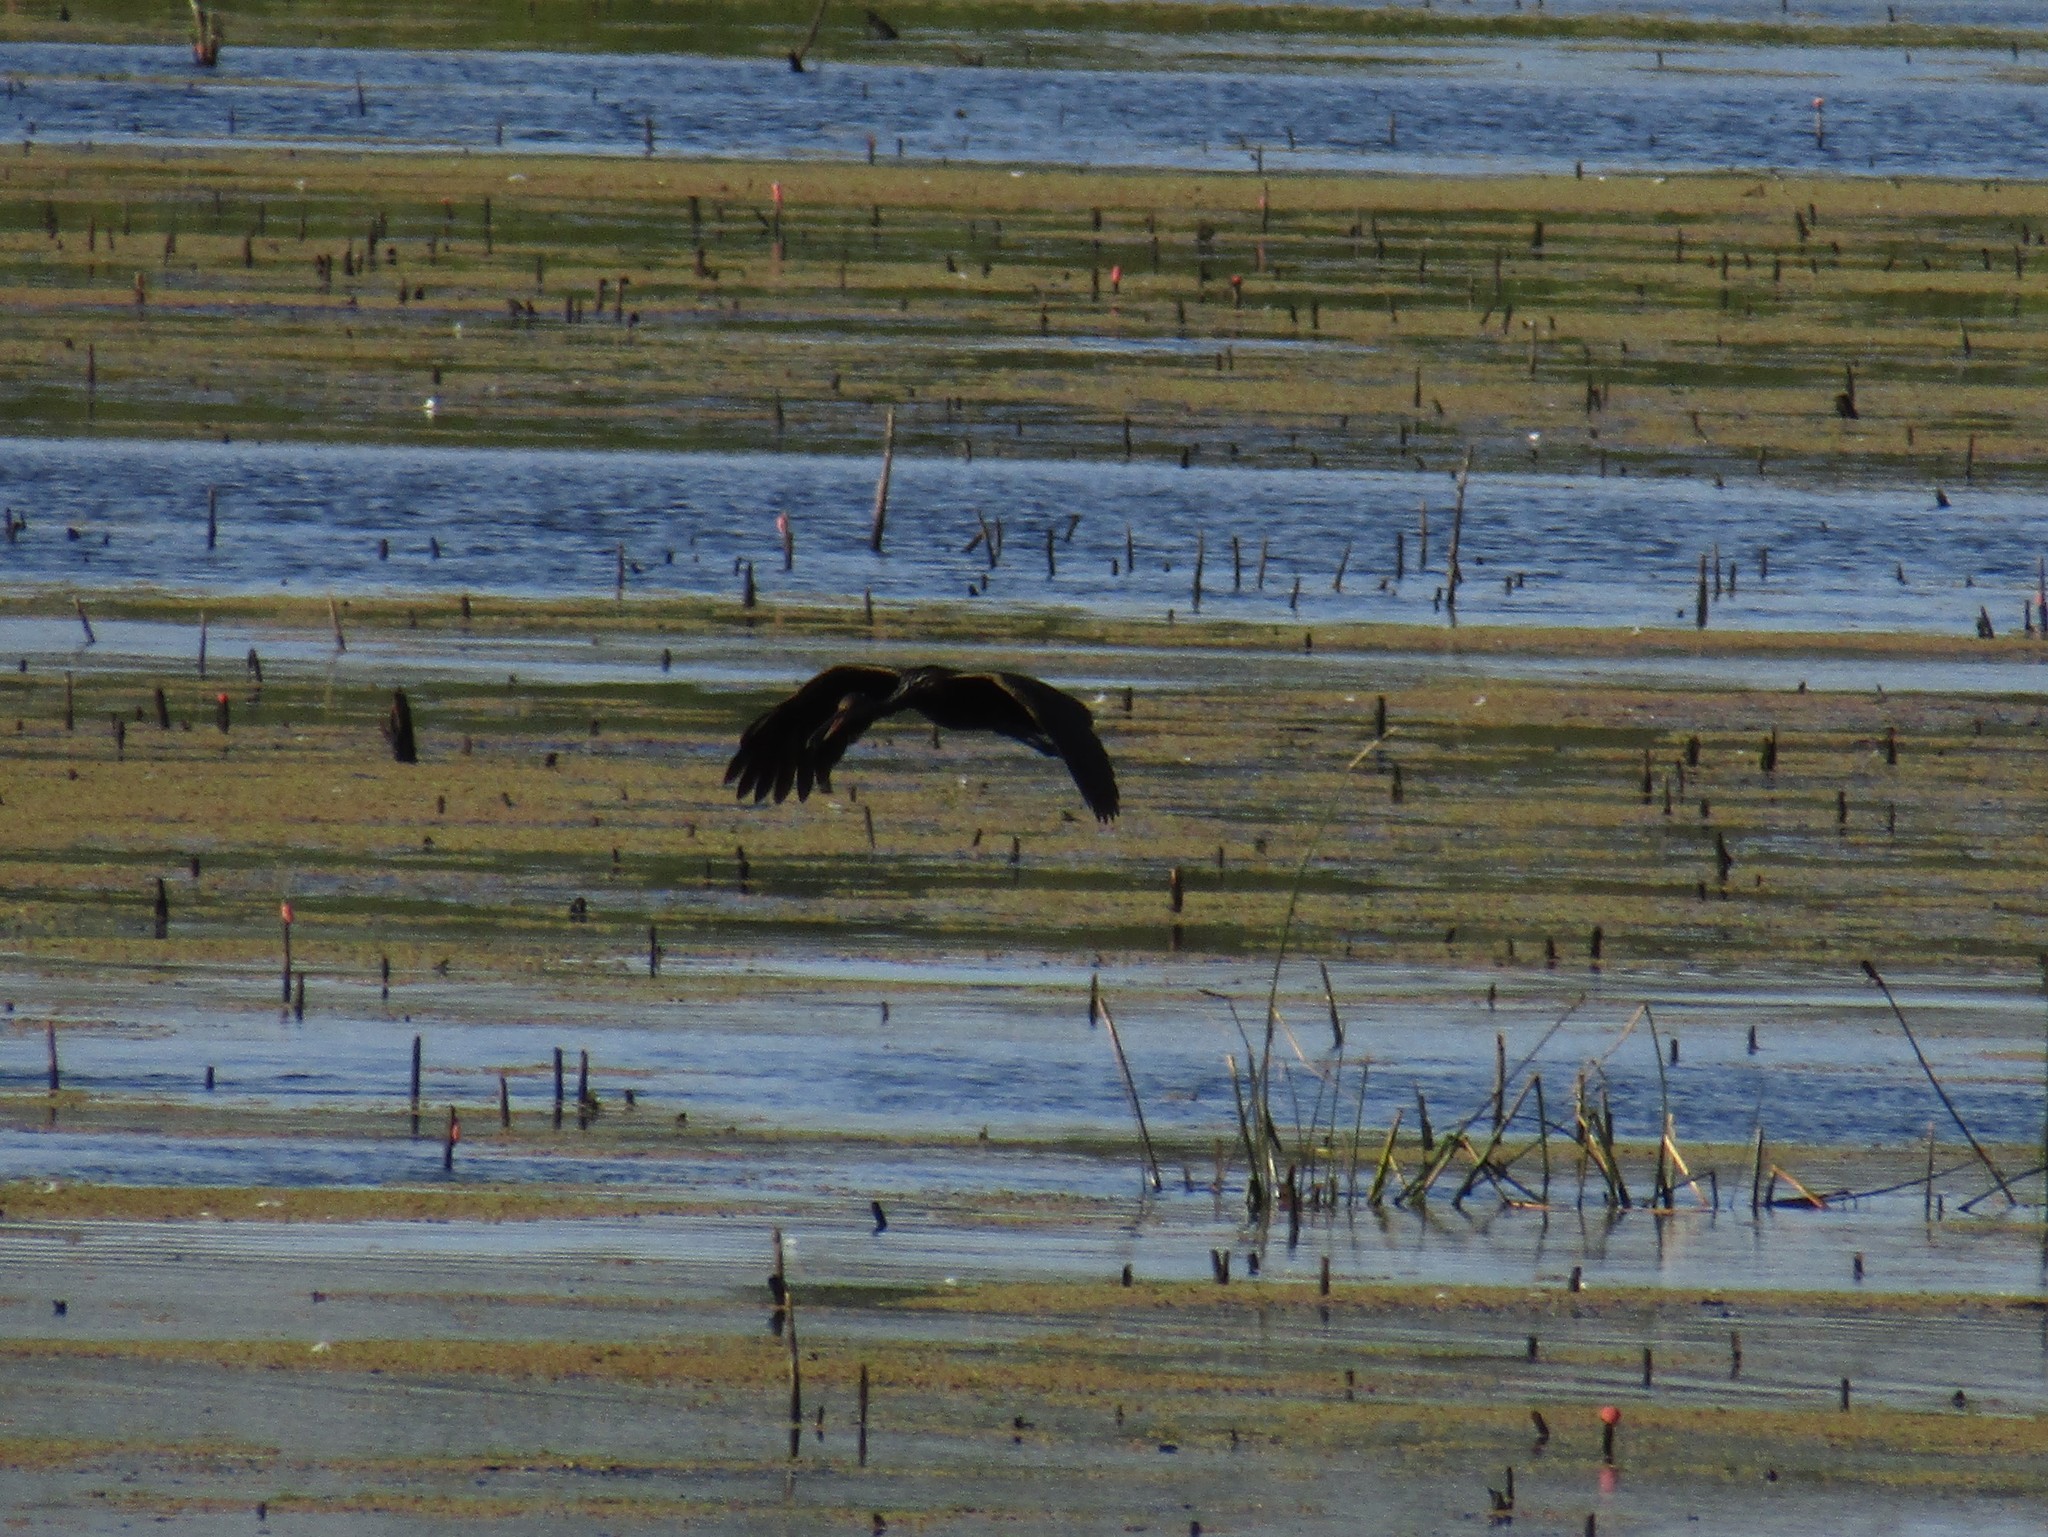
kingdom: Animalia
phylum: Chordata
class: Aves
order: Gruiformes
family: Aramidae
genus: Aramus
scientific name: Aramus guarauna
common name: Limpkin
